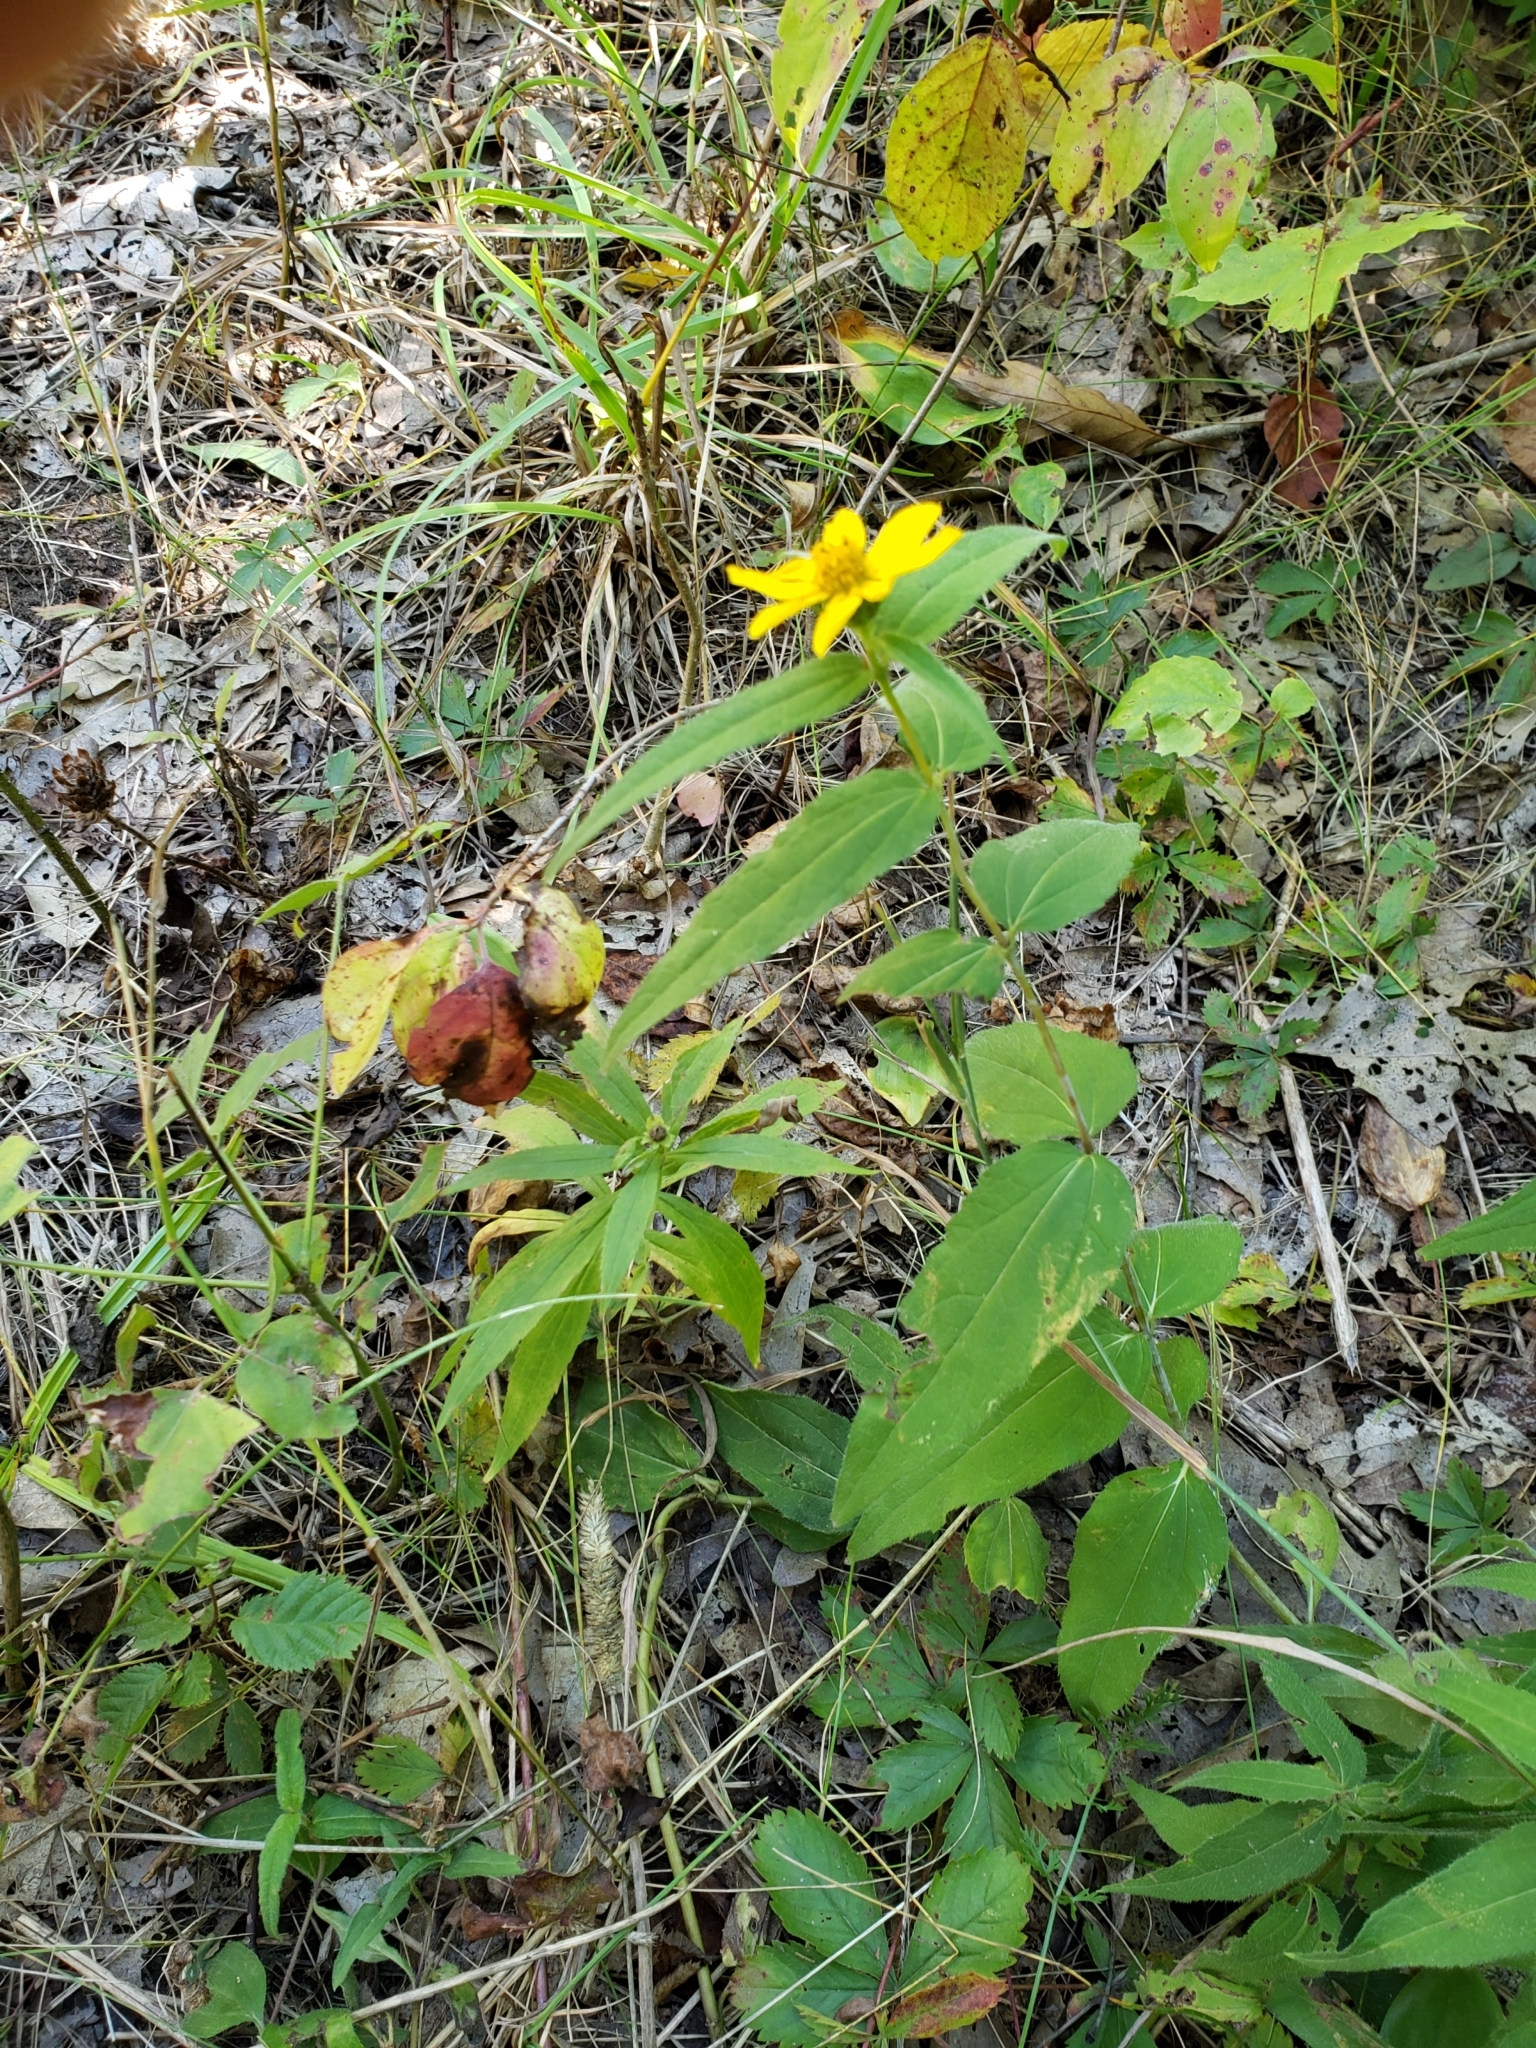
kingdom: Plantae
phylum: Tracheophyta
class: Magnoliopsida
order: Asterales
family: Asteraceae
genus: Helianthus
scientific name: Helianthus divaricatus
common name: Divergent sunflower
